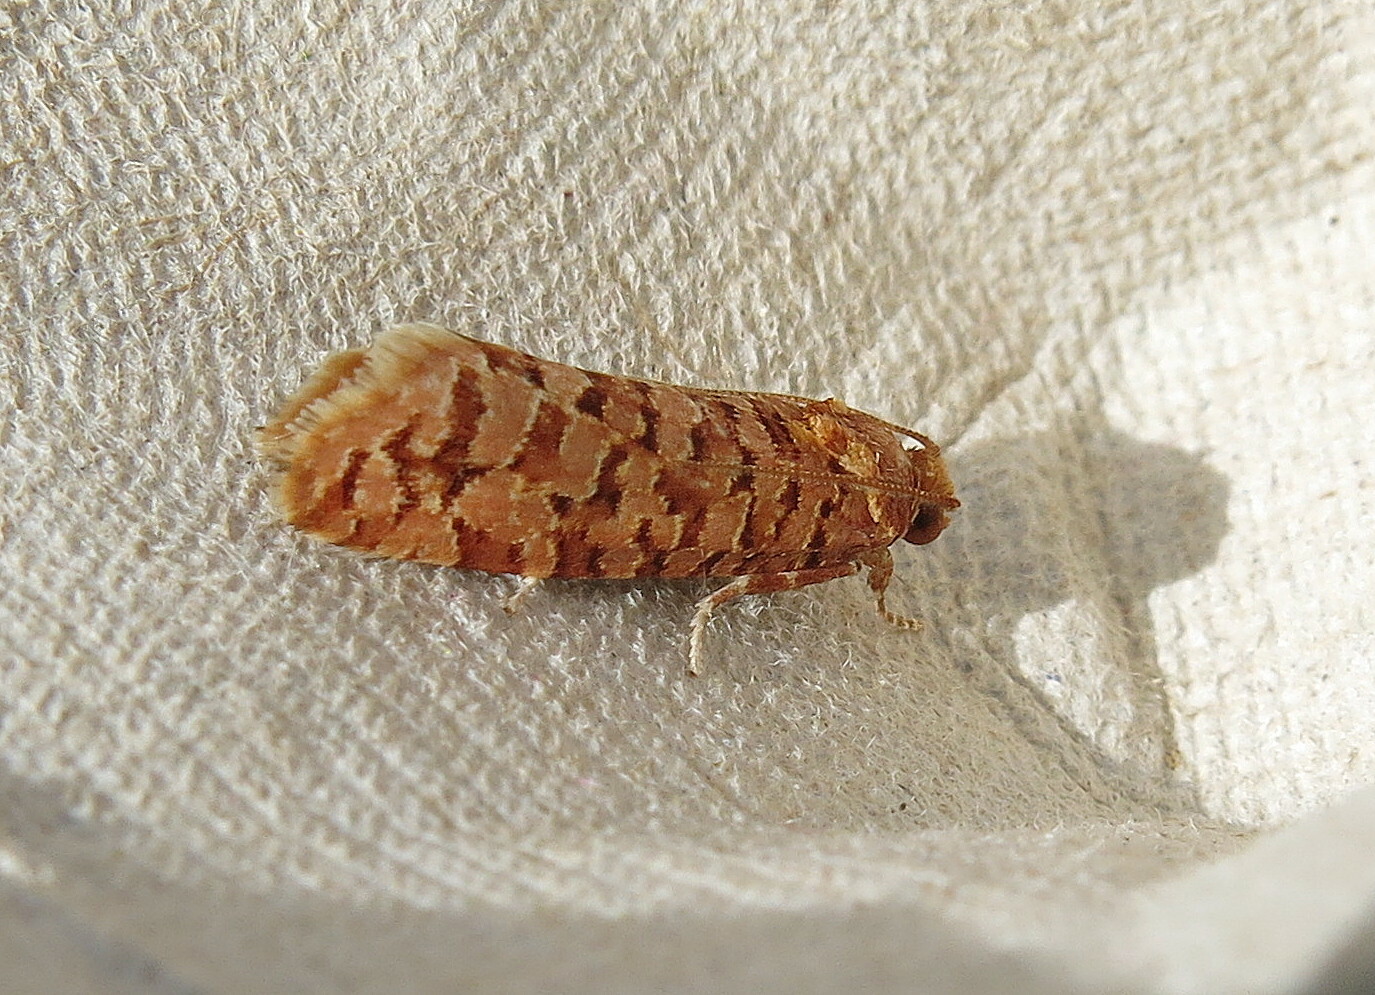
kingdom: Animalia
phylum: Arthropoda
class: Insecta
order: Lepidoptera
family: Tortricidae
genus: Lozotaeniodes
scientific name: Lozotaeniodes formosana
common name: Orange pine twist
